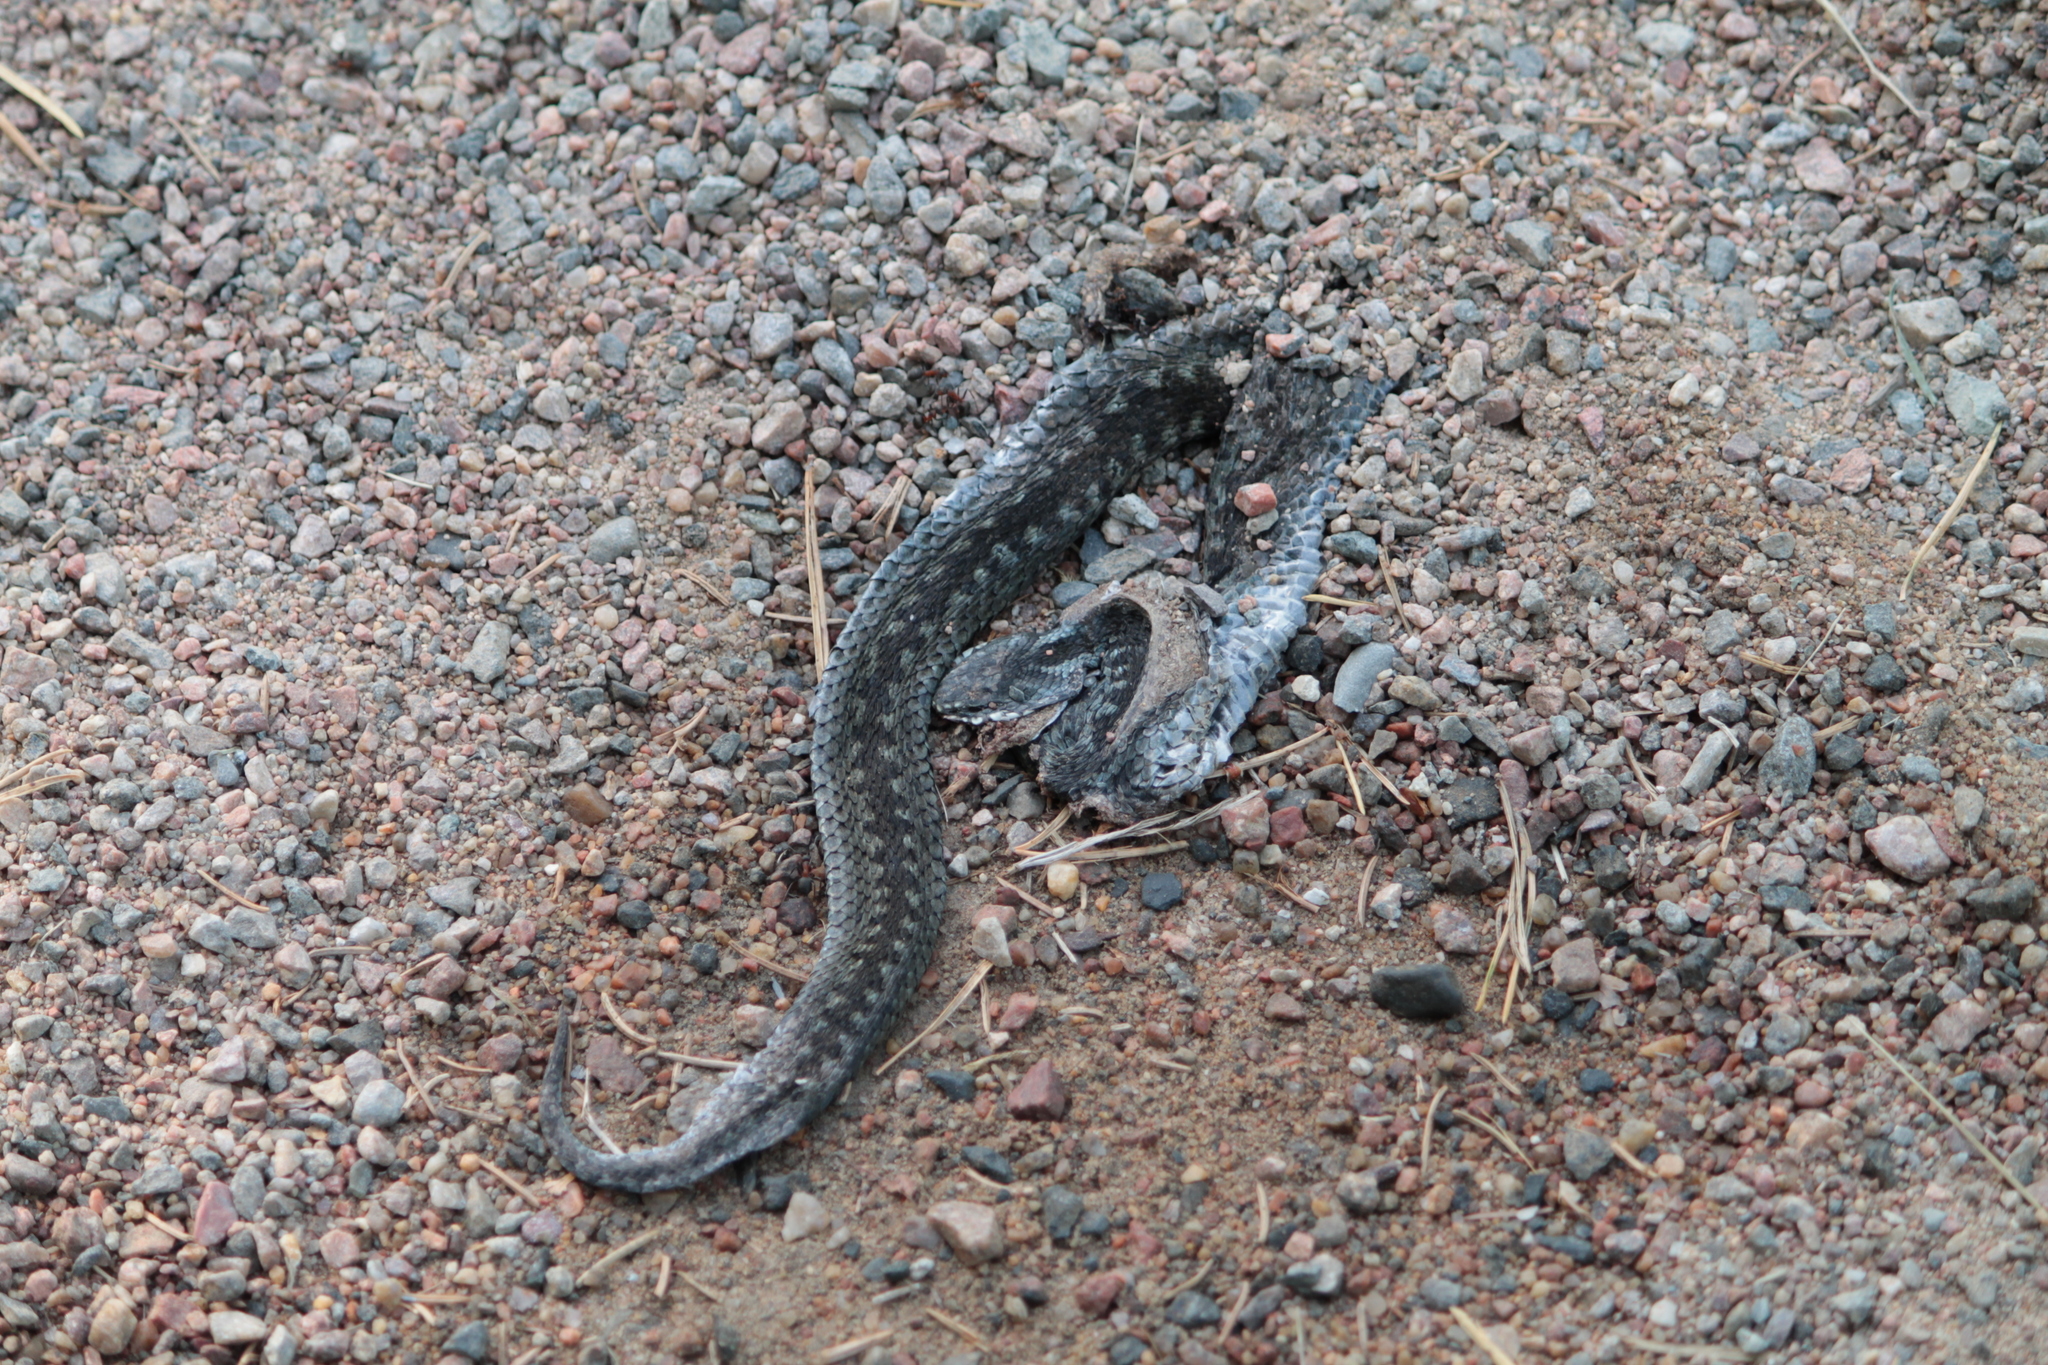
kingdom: Animalia
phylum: Chordata
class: Squamata
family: Viperidae
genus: Vipera
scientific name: Vipera berus
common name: Adder
